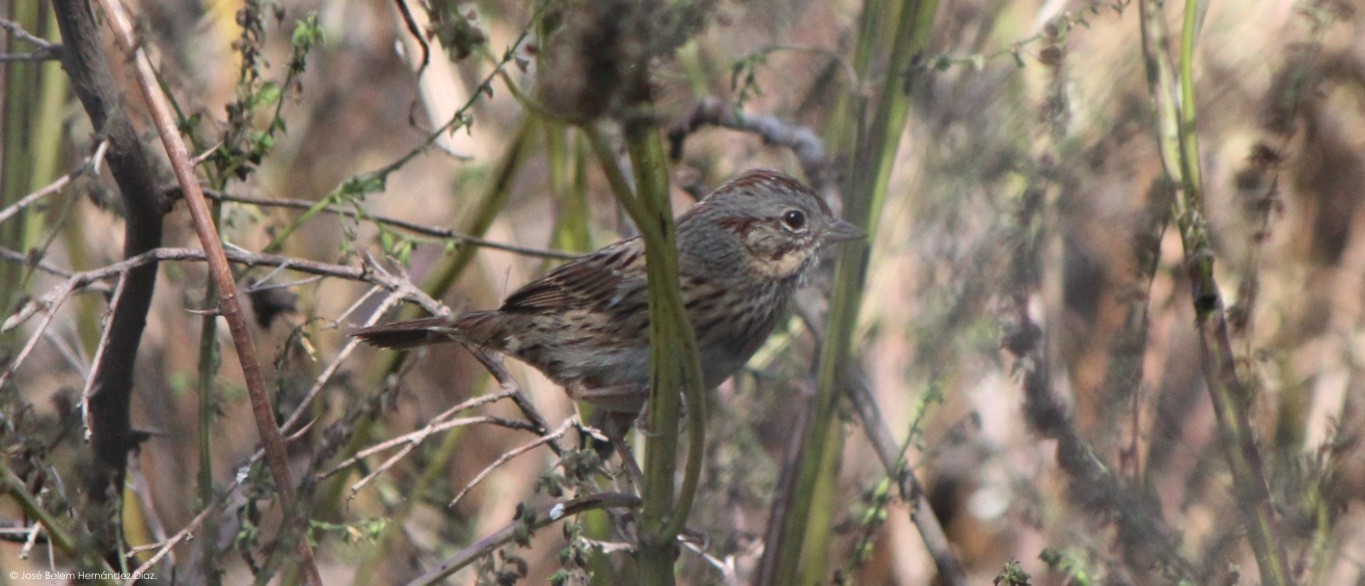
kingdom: Animalia
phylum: Chordata
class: Aves
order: Passeriformes
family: Passerellidae
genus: Melospiza
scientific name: Melospiza lincolnii
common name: Lincoln's sparrow
